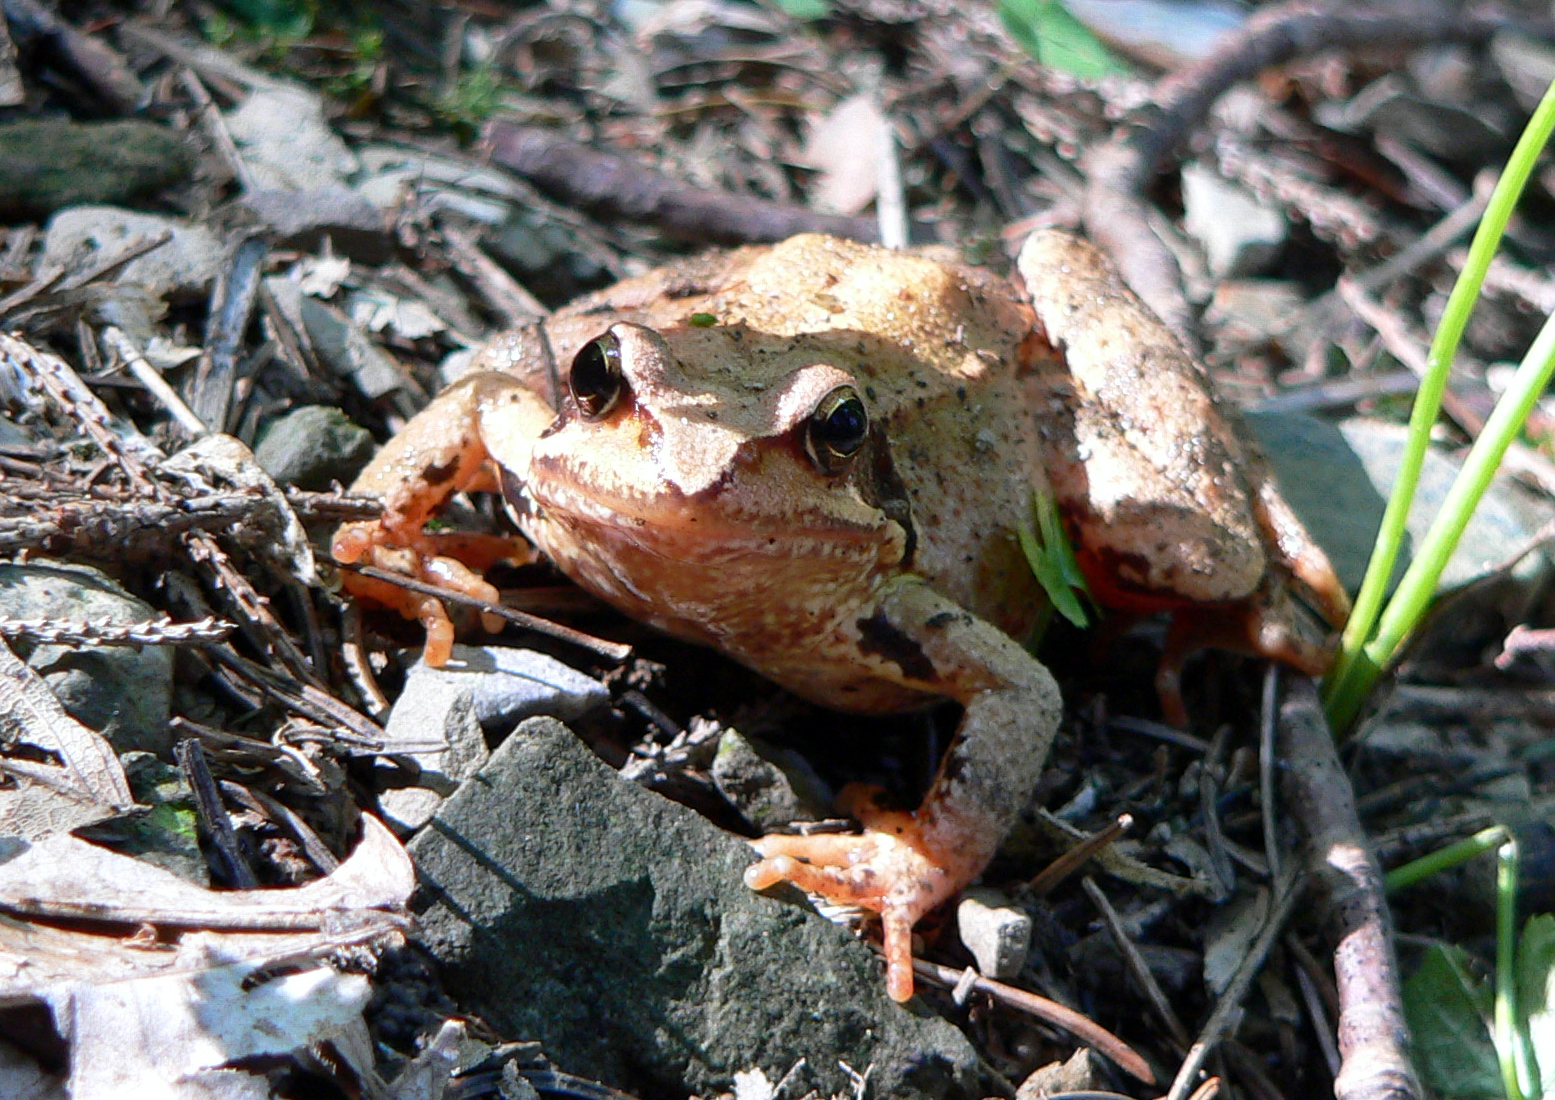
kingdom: Animalia
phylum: Chordata
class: Amphibia
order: Anura
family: Ranidae
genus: Rana
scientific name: Rana temporaria
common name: Common frog
